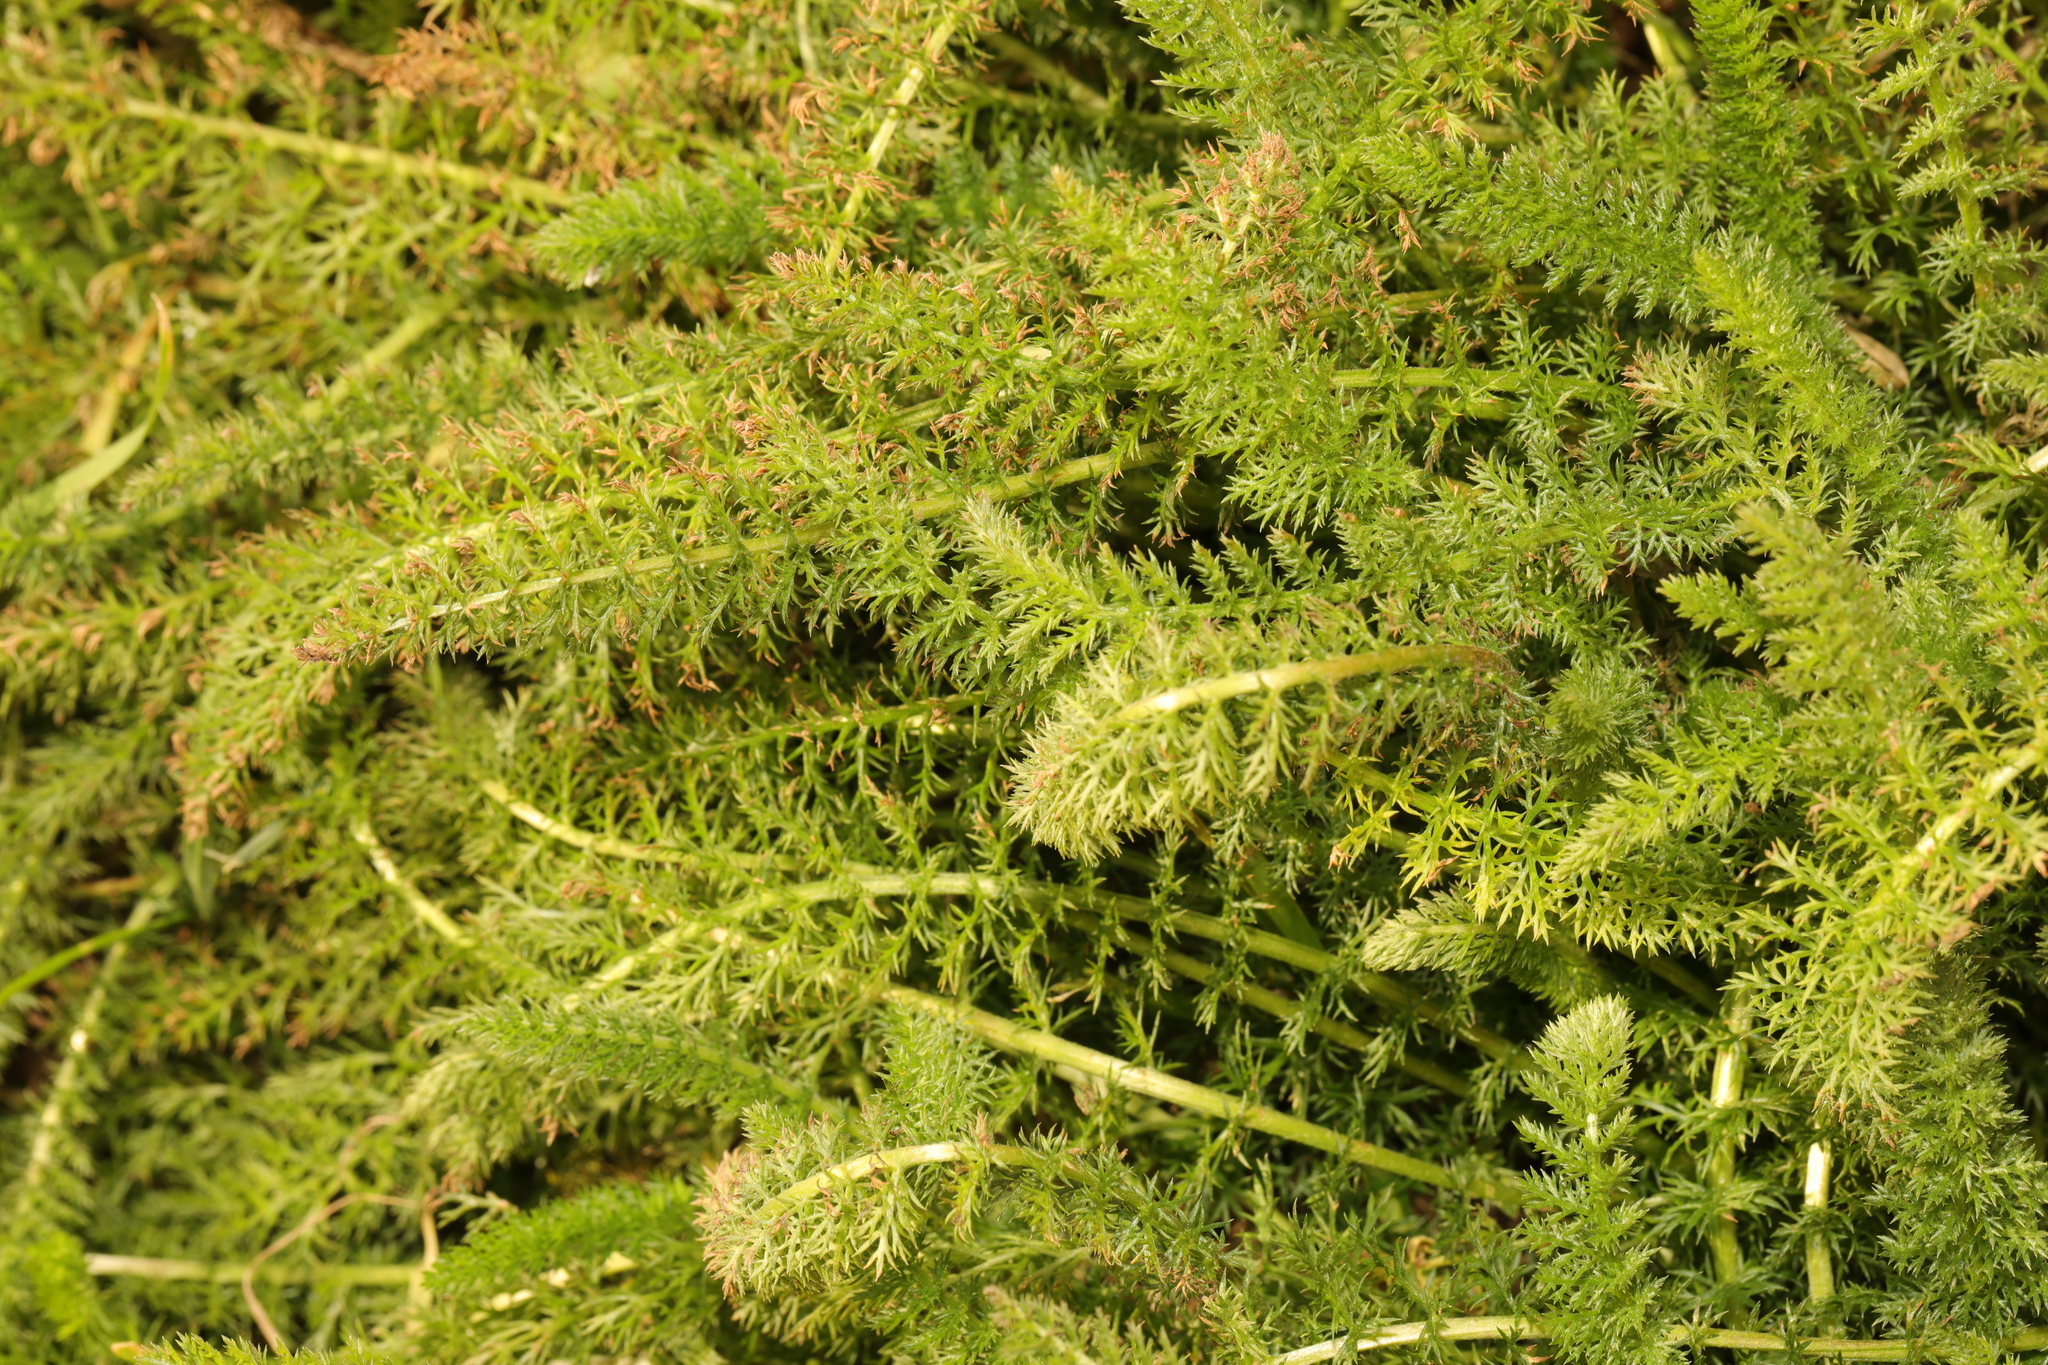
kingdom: Plantae
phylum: Tracheophyta
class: Magnoliopsida
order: Asterales
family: Asteraceae
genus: Achillea
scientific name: Achillea millefolium
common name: Yarrow
